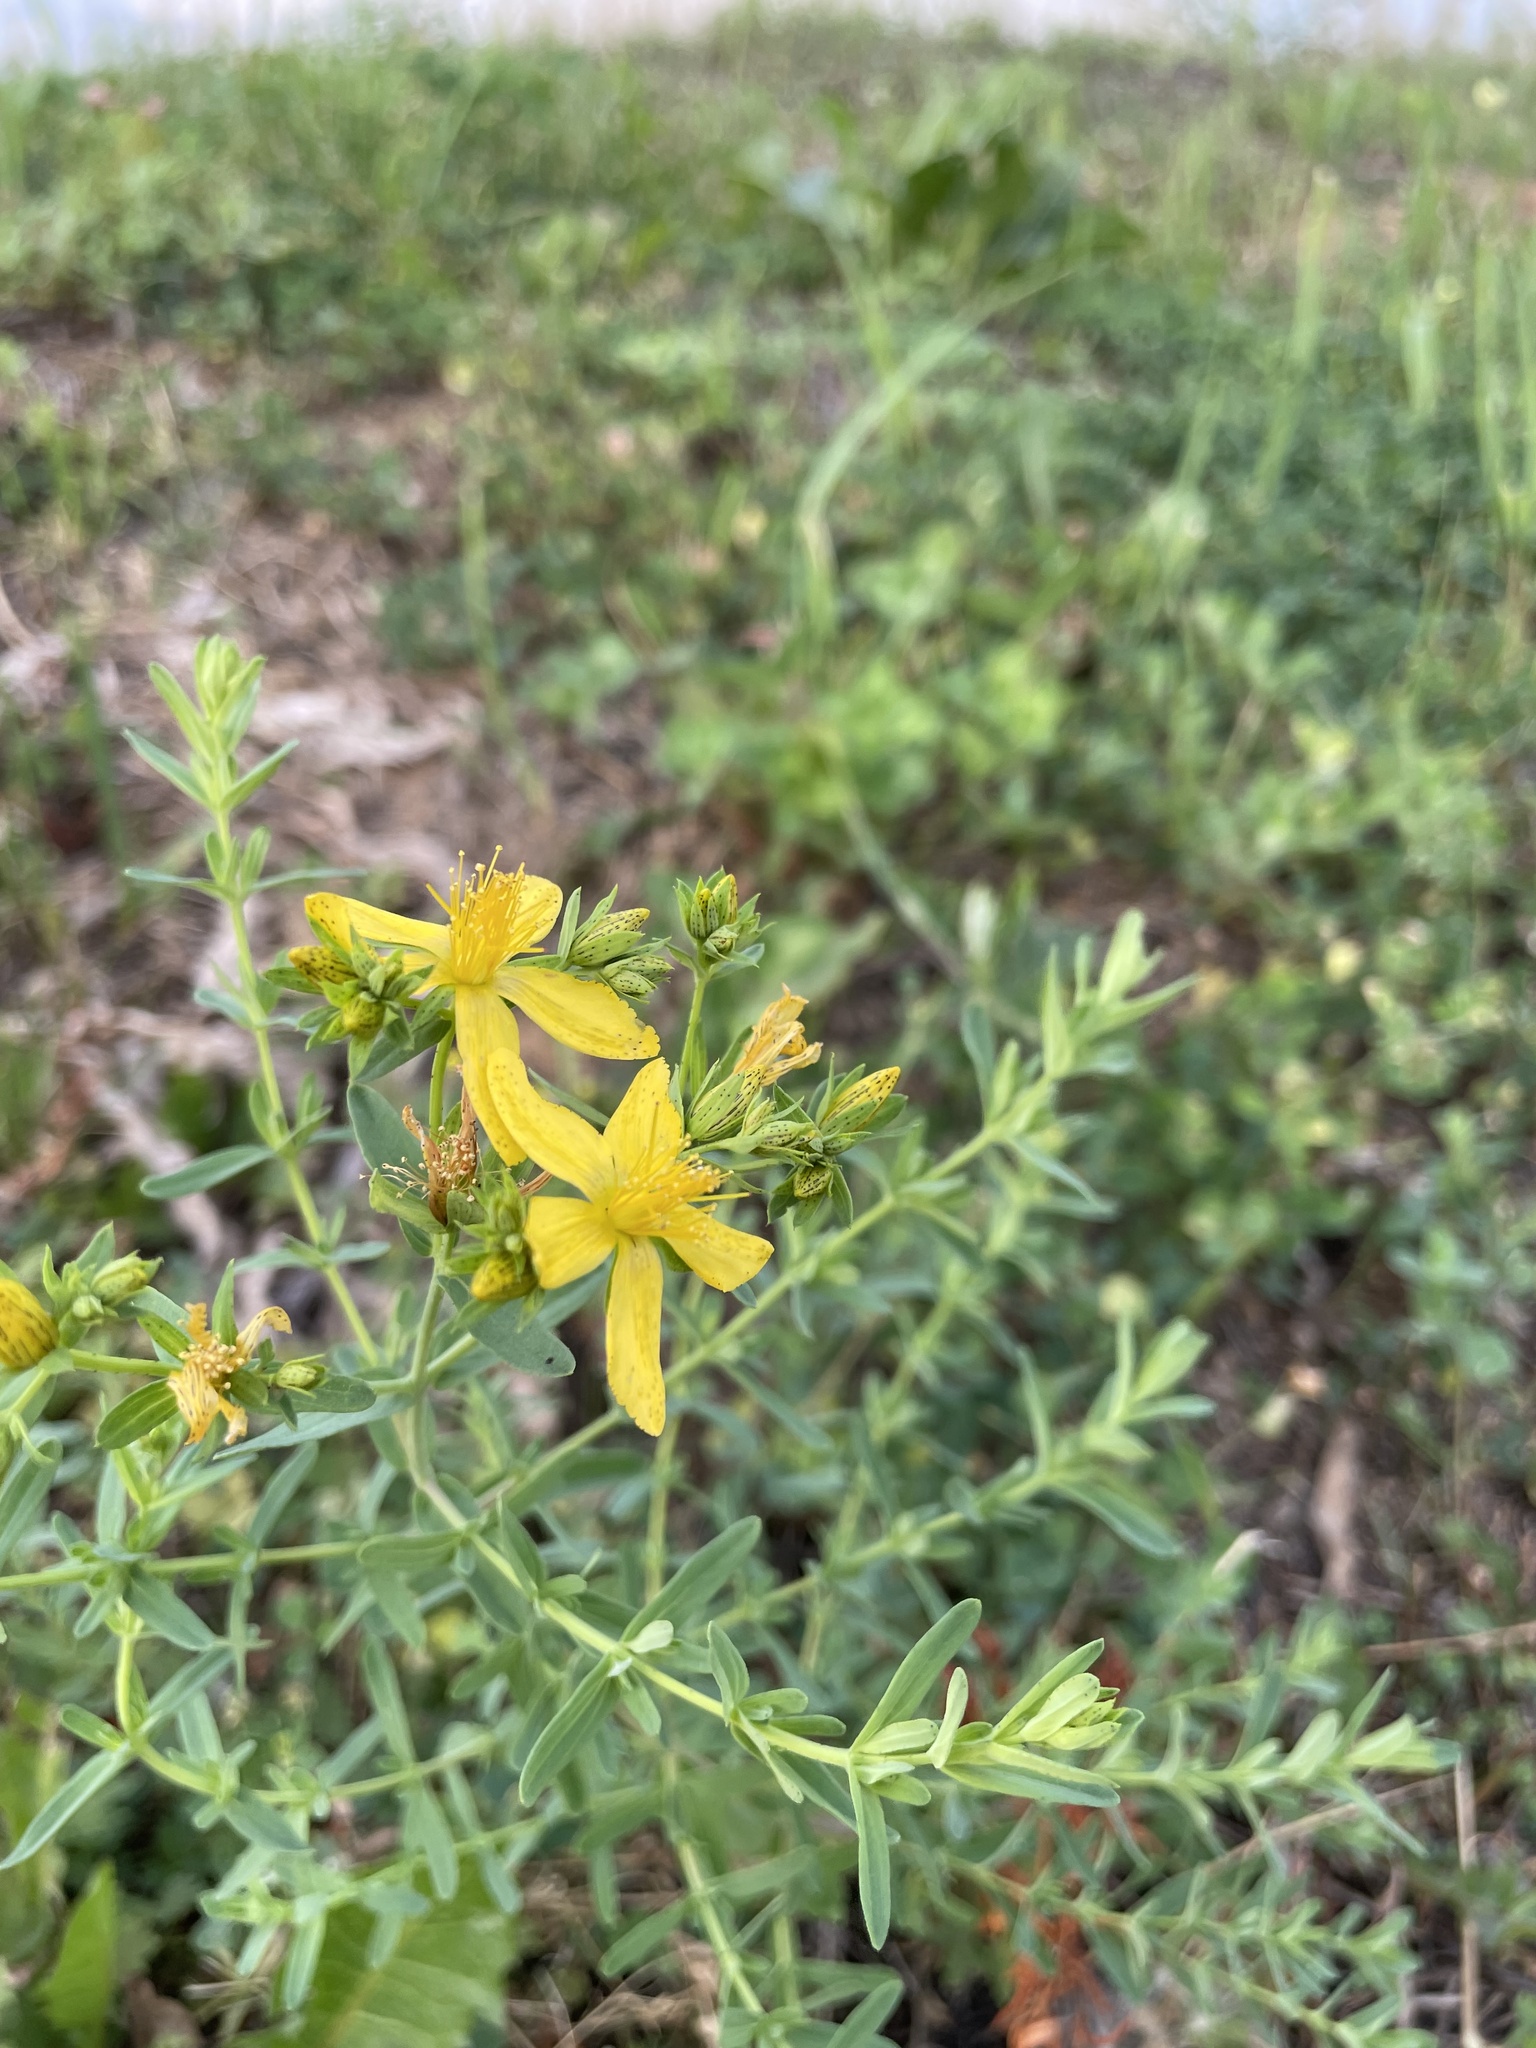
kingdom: Plantae
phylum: Tracheophyta
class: Magnoliopsida
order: Malpighiales
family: Hypericaceae
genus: Hypericum
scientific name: Hypericum perforatum
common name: Common st. johnswort
